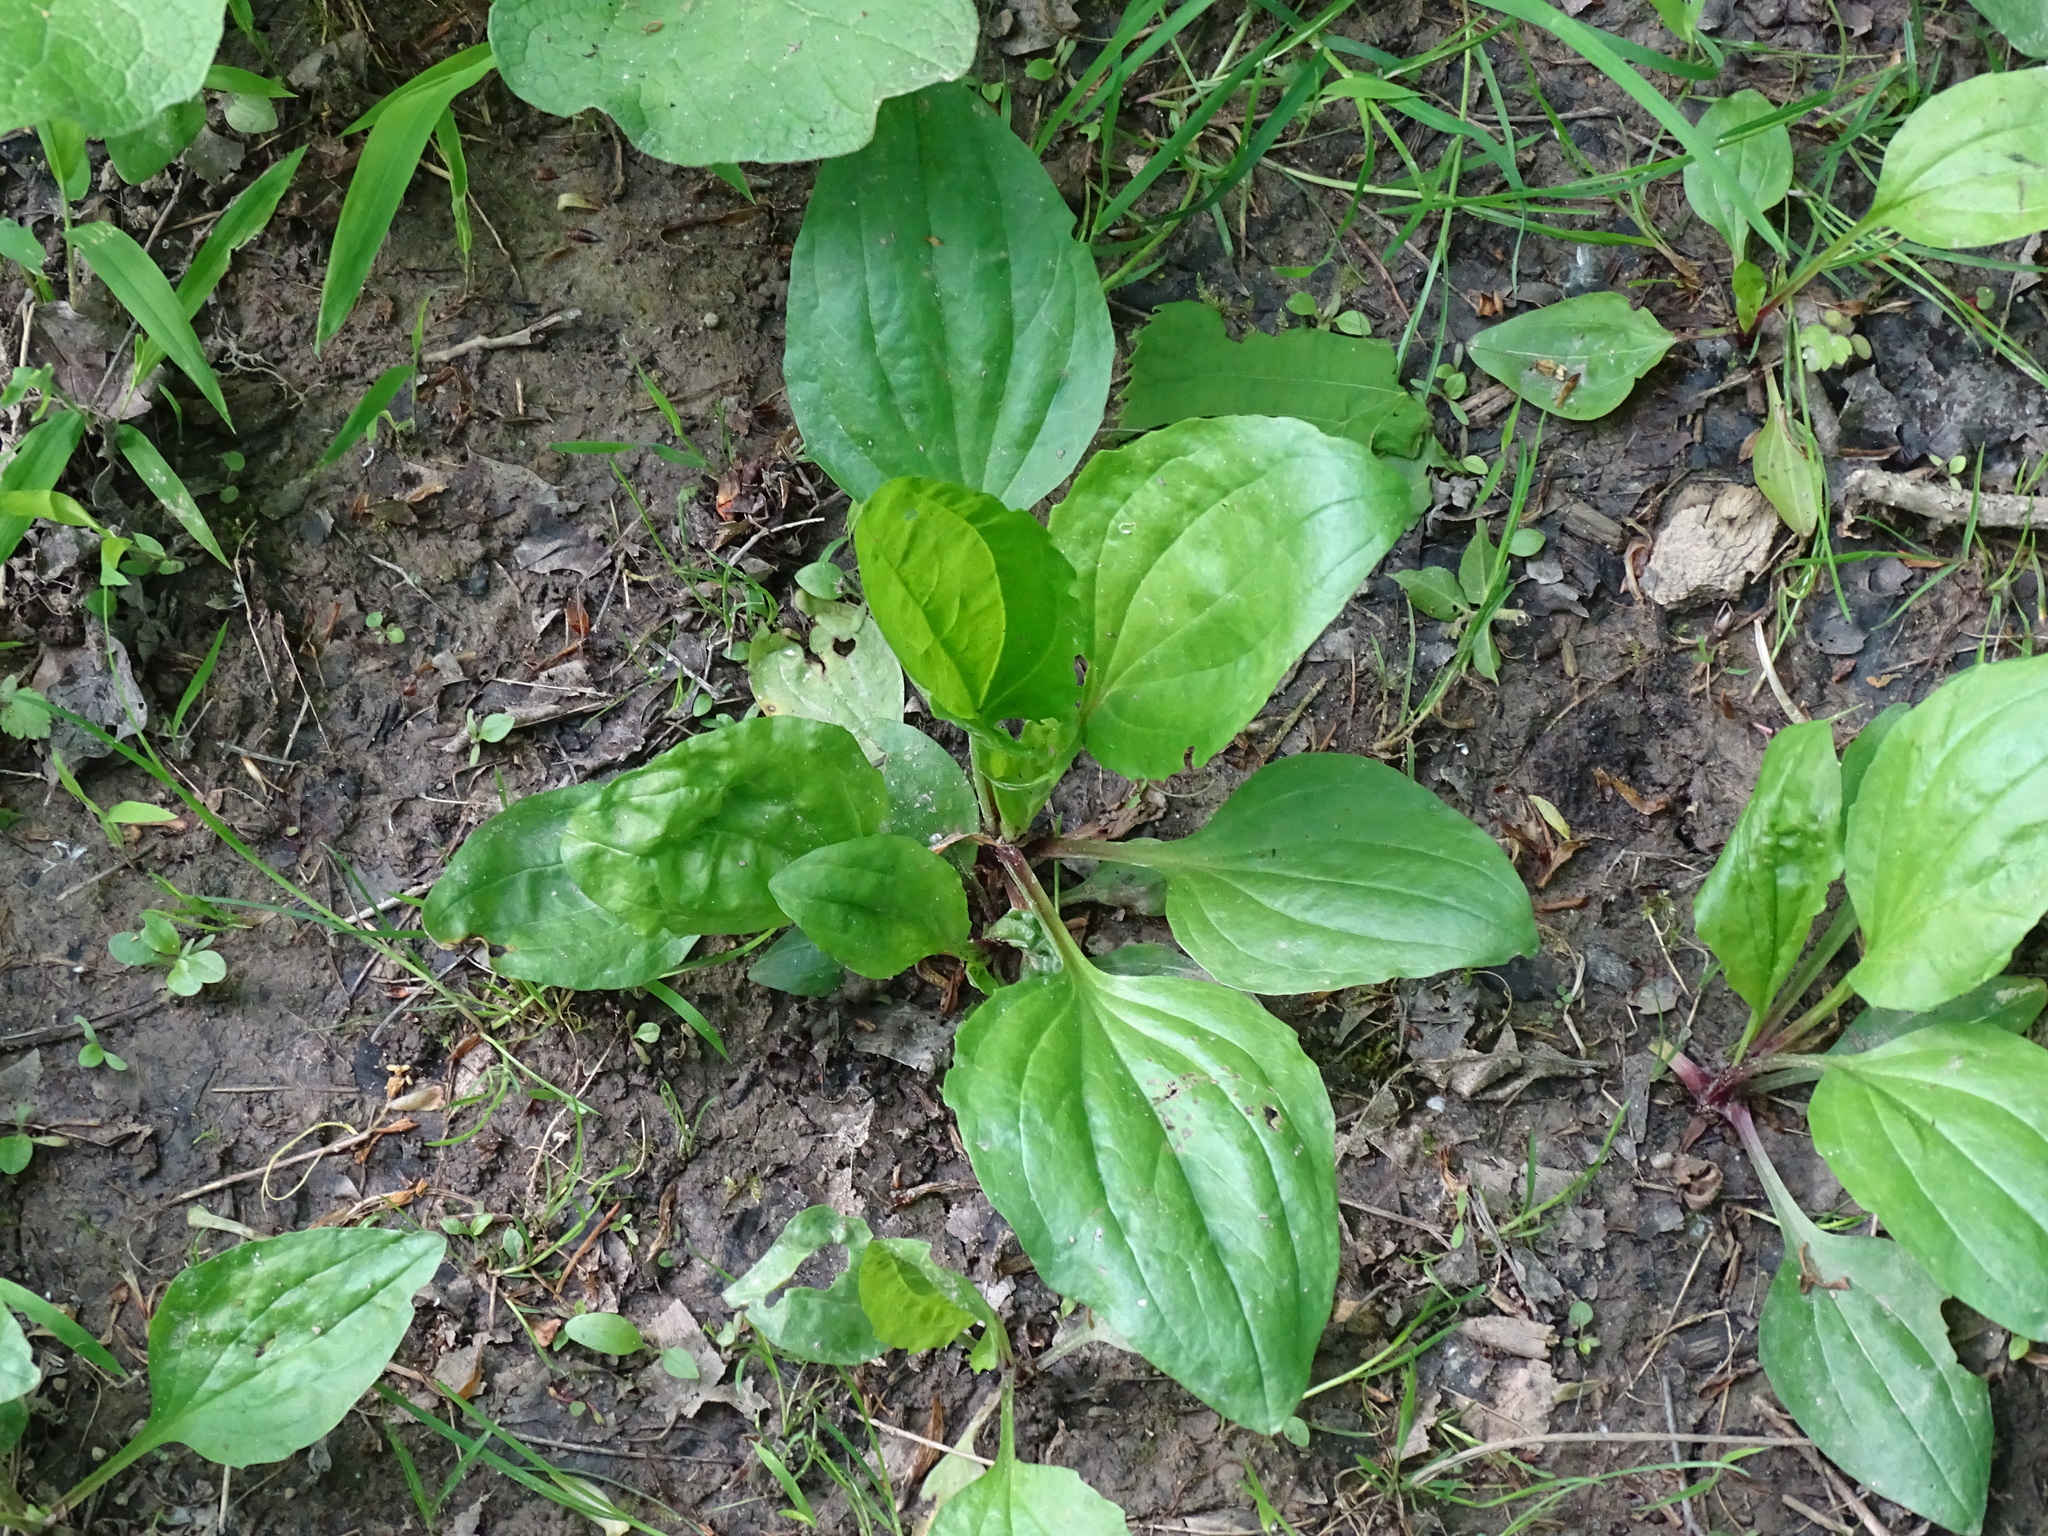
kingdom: Plantae
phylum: Tracheophyta
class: Magnoliopsida
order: Lamiales
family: Plantaginaceae
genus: Plantago
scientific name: Plantago rugelii
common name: American plantain
